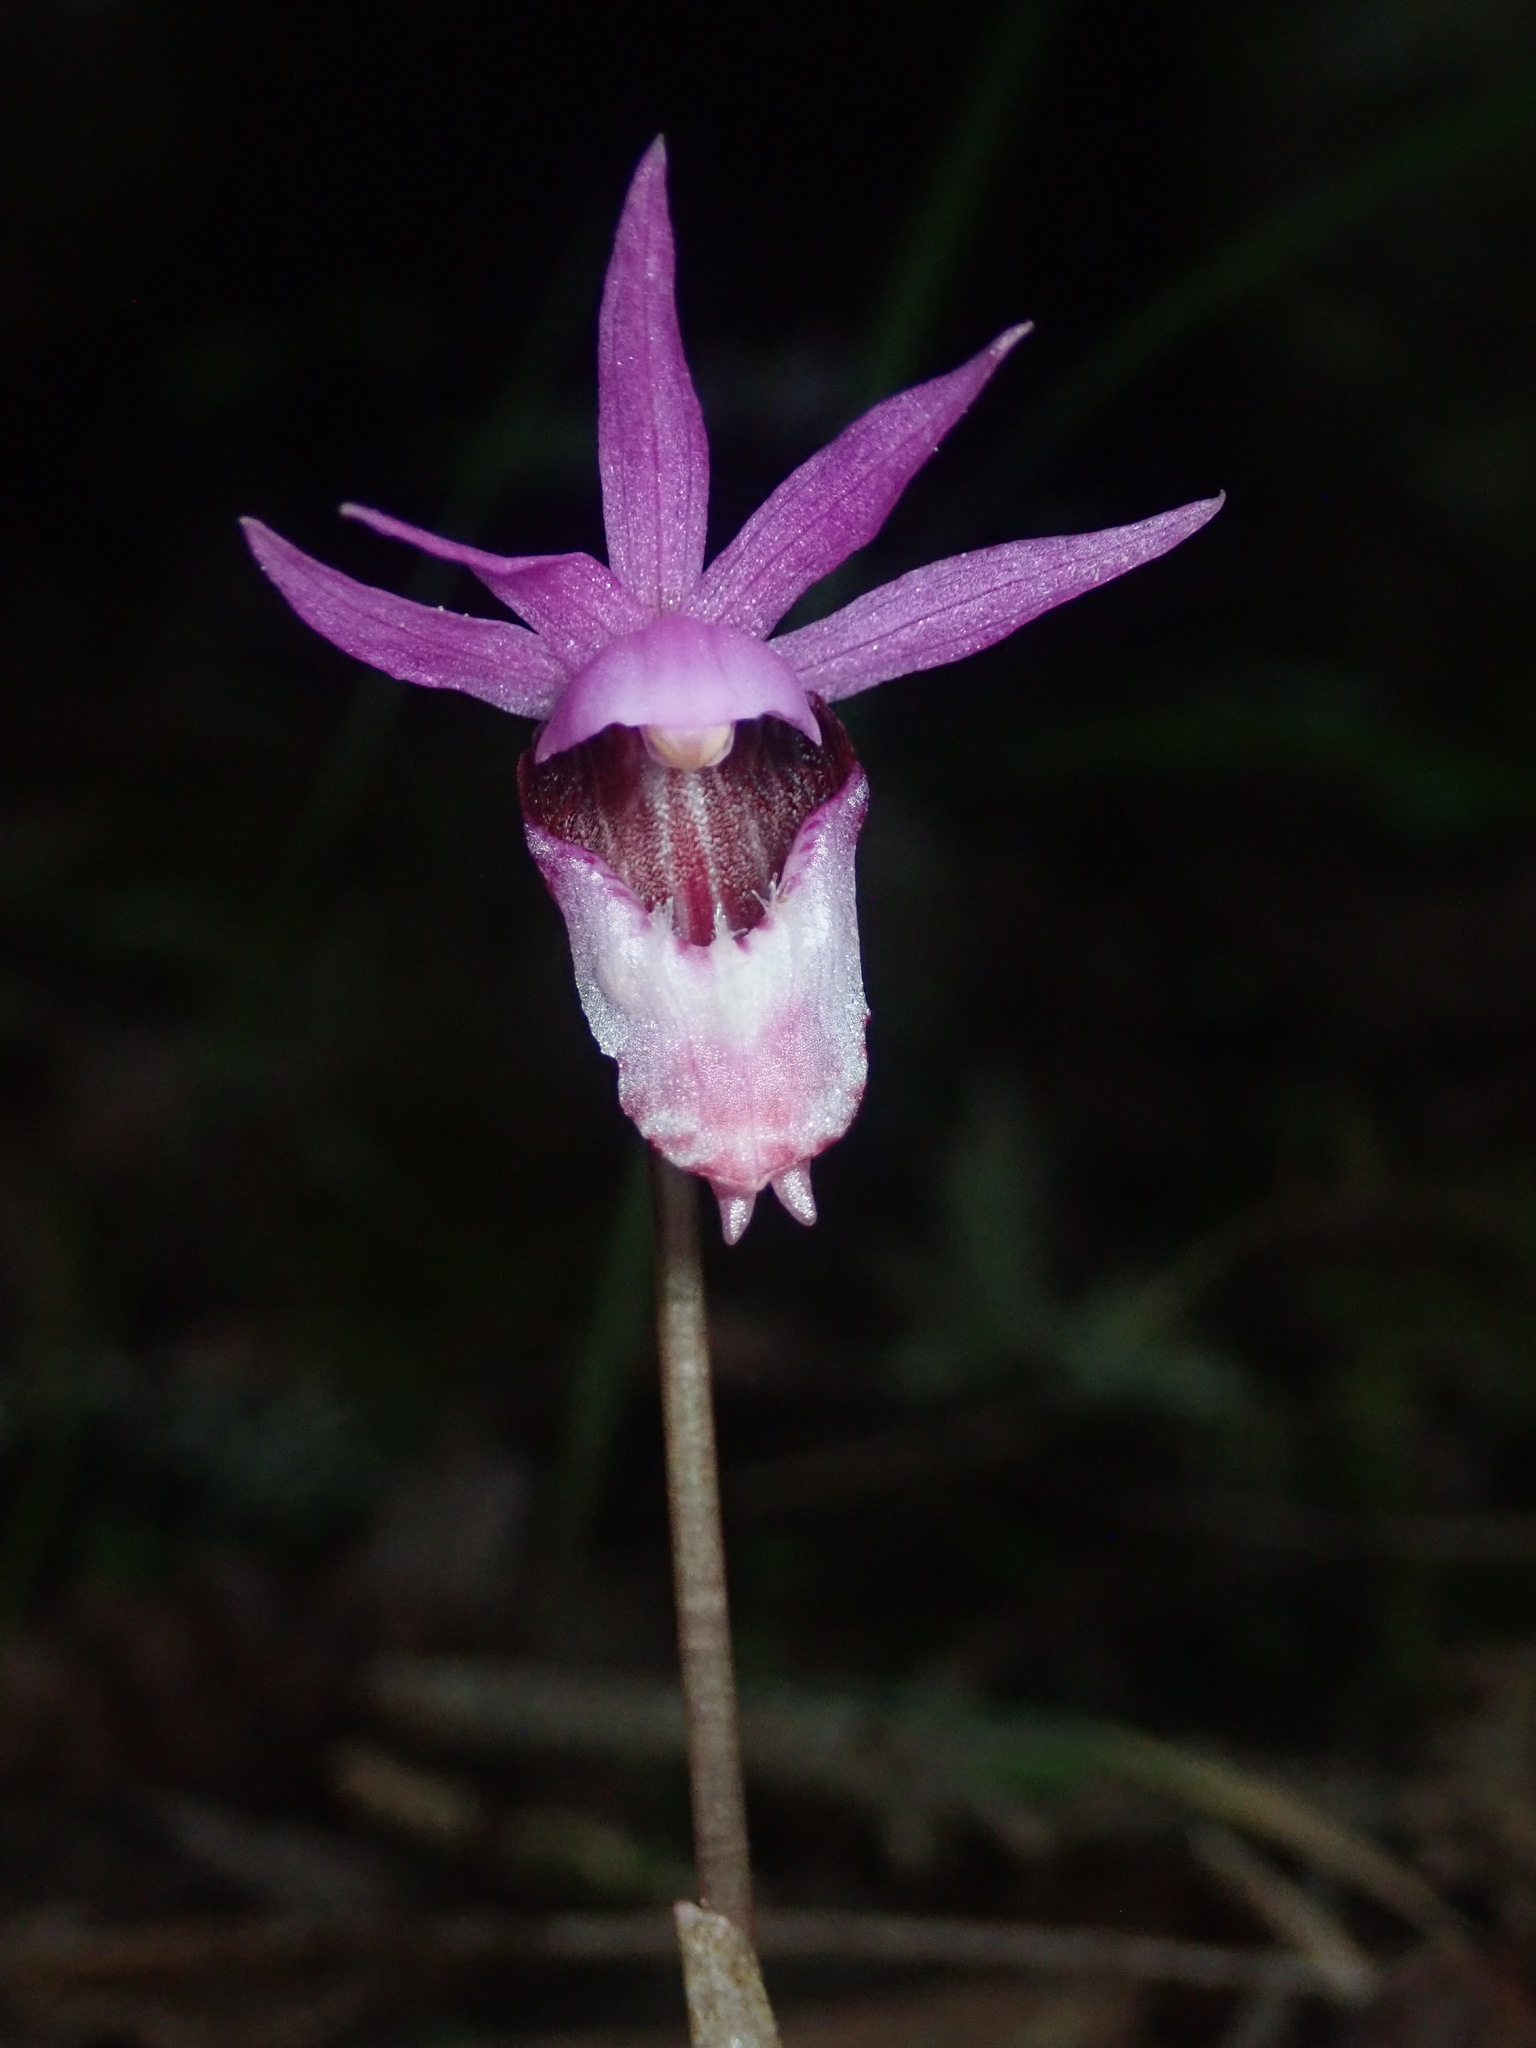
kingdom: Plantae
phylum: Tracheophyta
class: Liliopsida
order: Asparagales
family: Orchidaceae
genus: Calypso
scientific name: Calypso bulbosa
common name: Calypso
